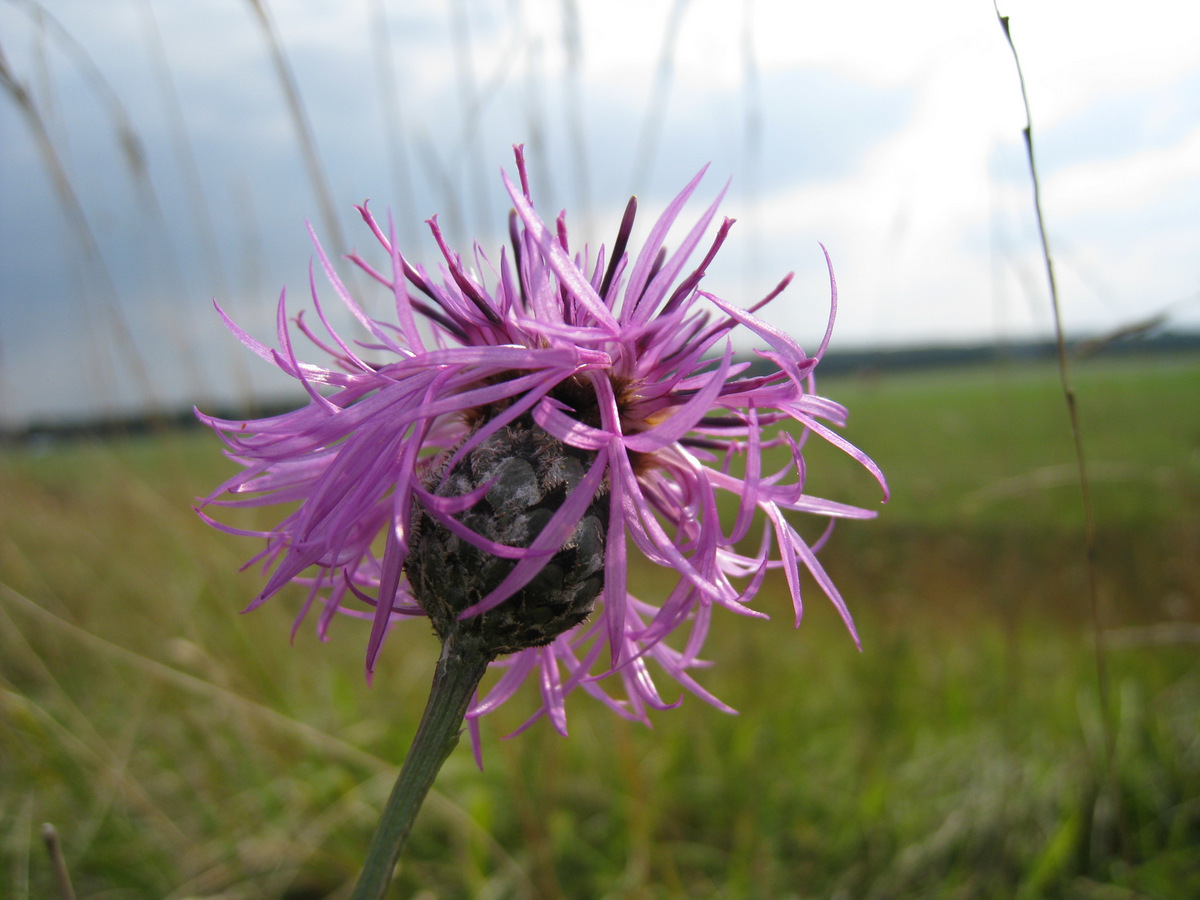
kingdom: Plantae
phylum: Tracheophyta
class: Magnoliopsida
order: Asterales
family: Asteraceae
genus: Centaurea
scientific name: Centaurea scabiosa
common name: Greater knapweed
